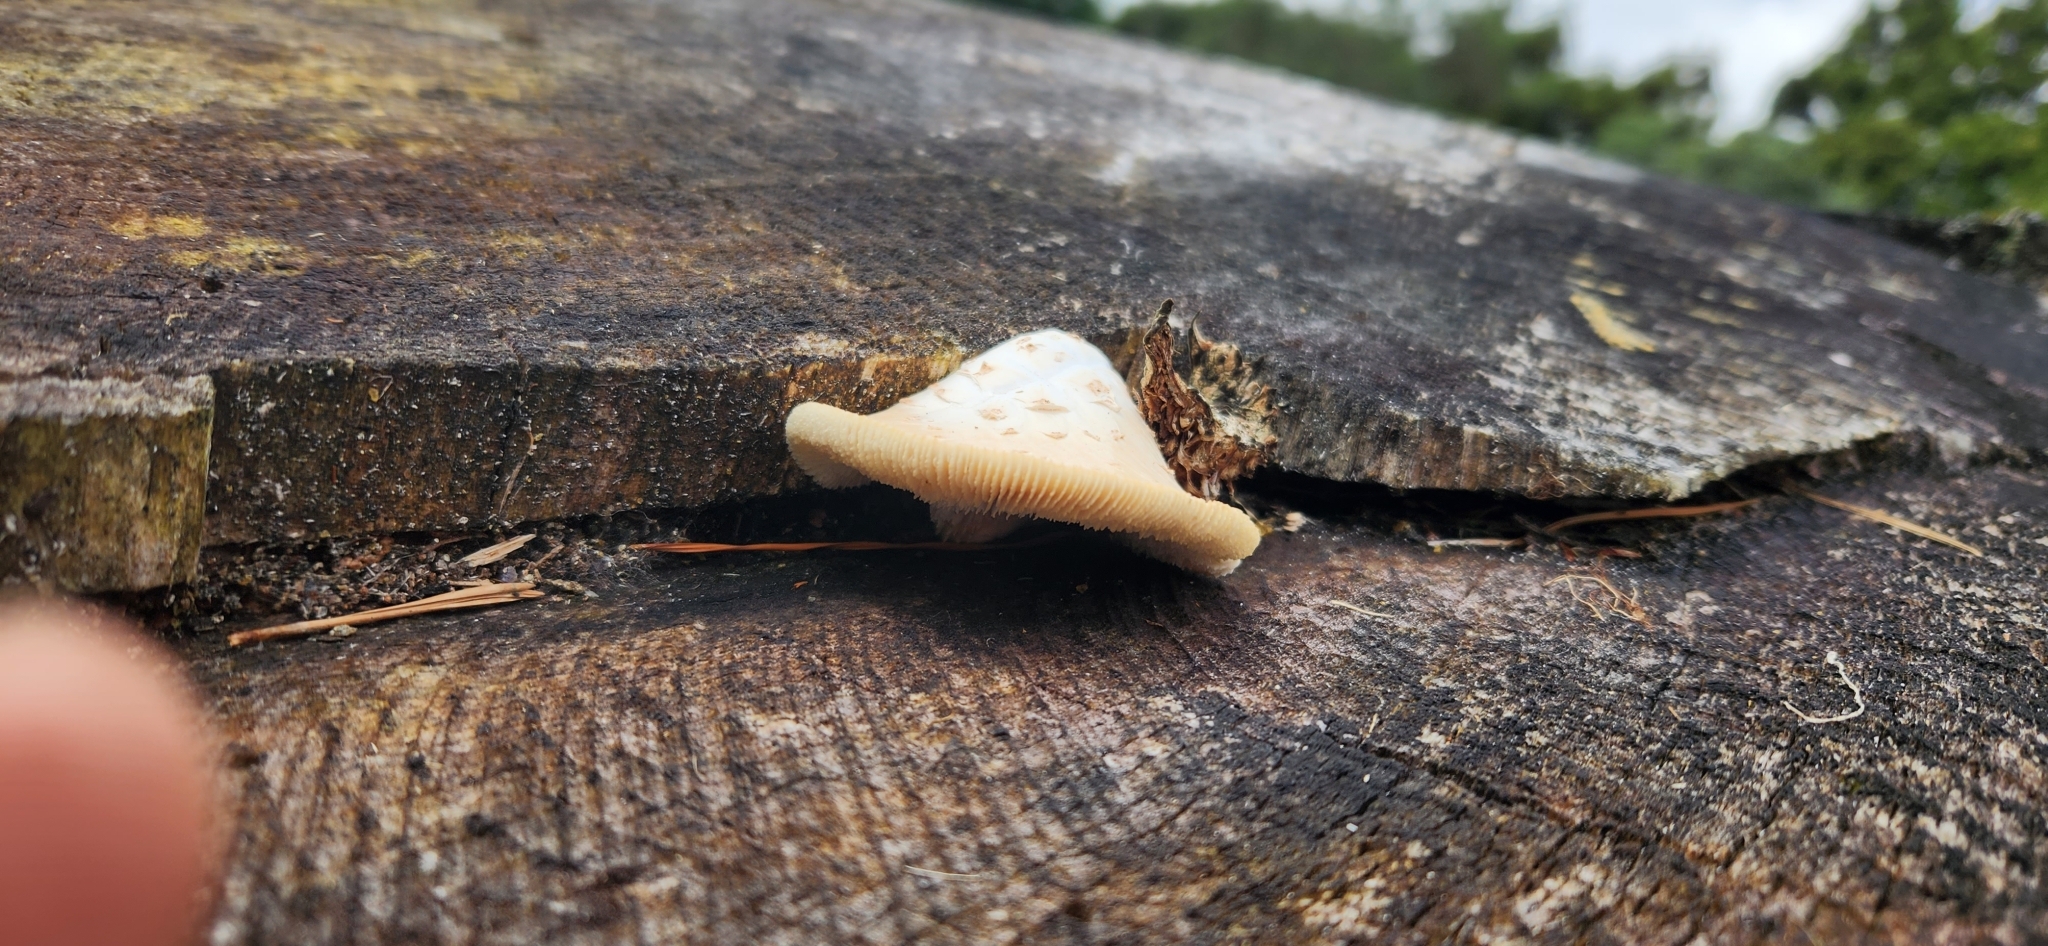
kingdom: Fungi
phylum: Basidiomycota
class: Agaricomycetes
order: Gloeophyllales
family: Gloeophyllaceae
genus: Neolentinus
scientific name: Neolentinus lepideus
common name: Scaly sawgill
